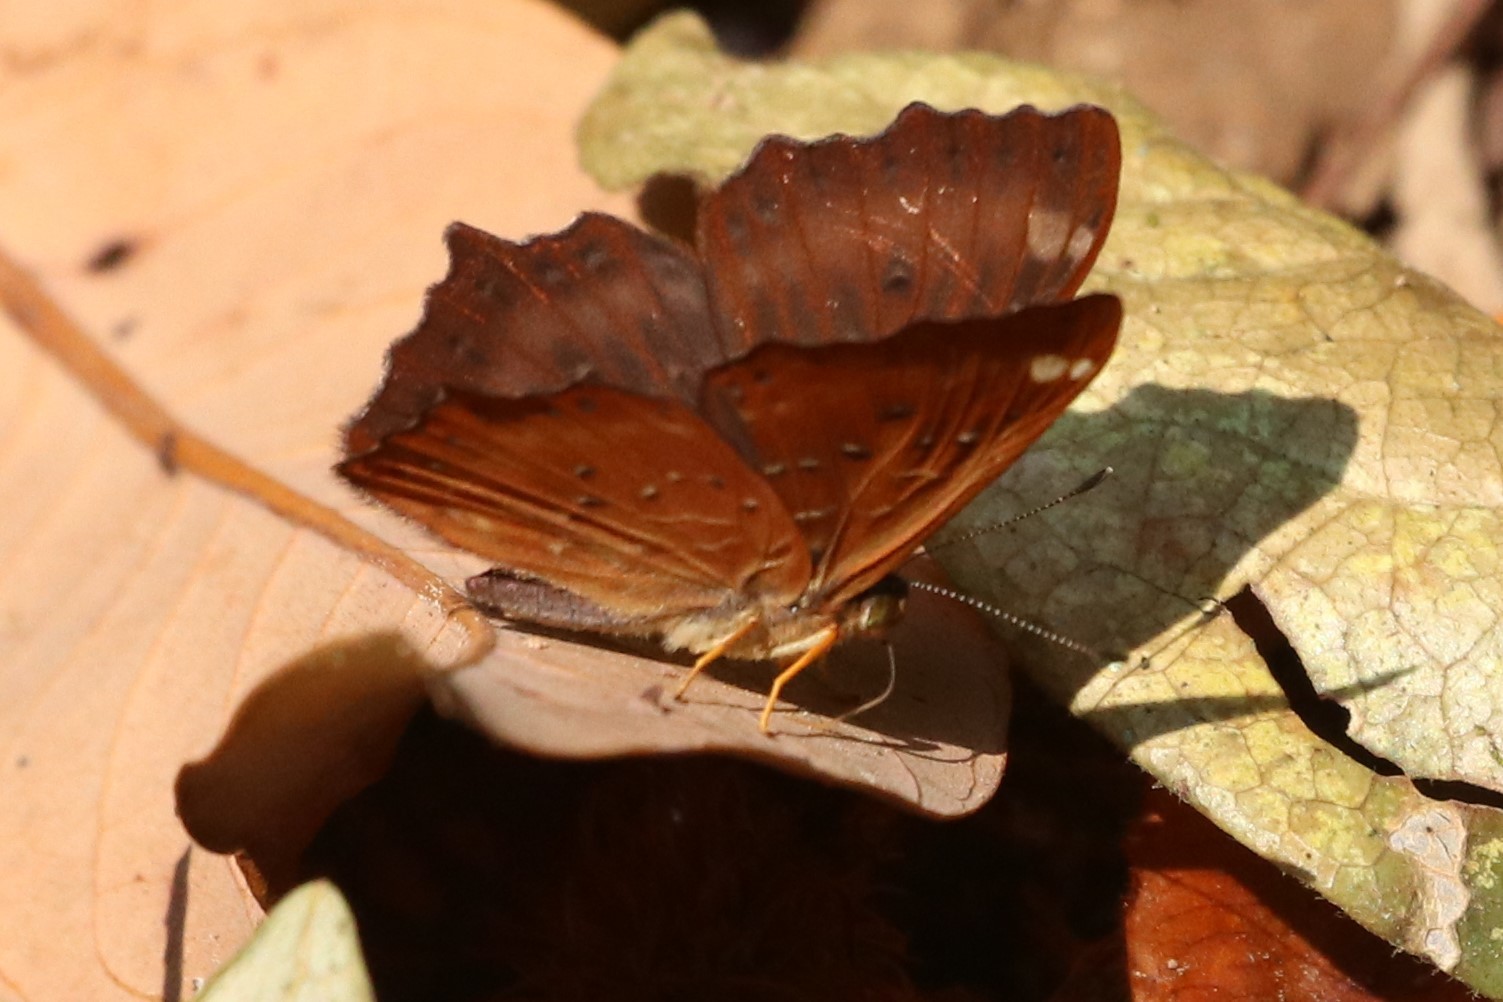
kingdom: Animalia
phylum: Arthropoda
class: Insecta
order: Lepidoptera
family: Riodinidae
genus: Zemeros
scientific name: Zemeros flegyas
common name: Punchinello
